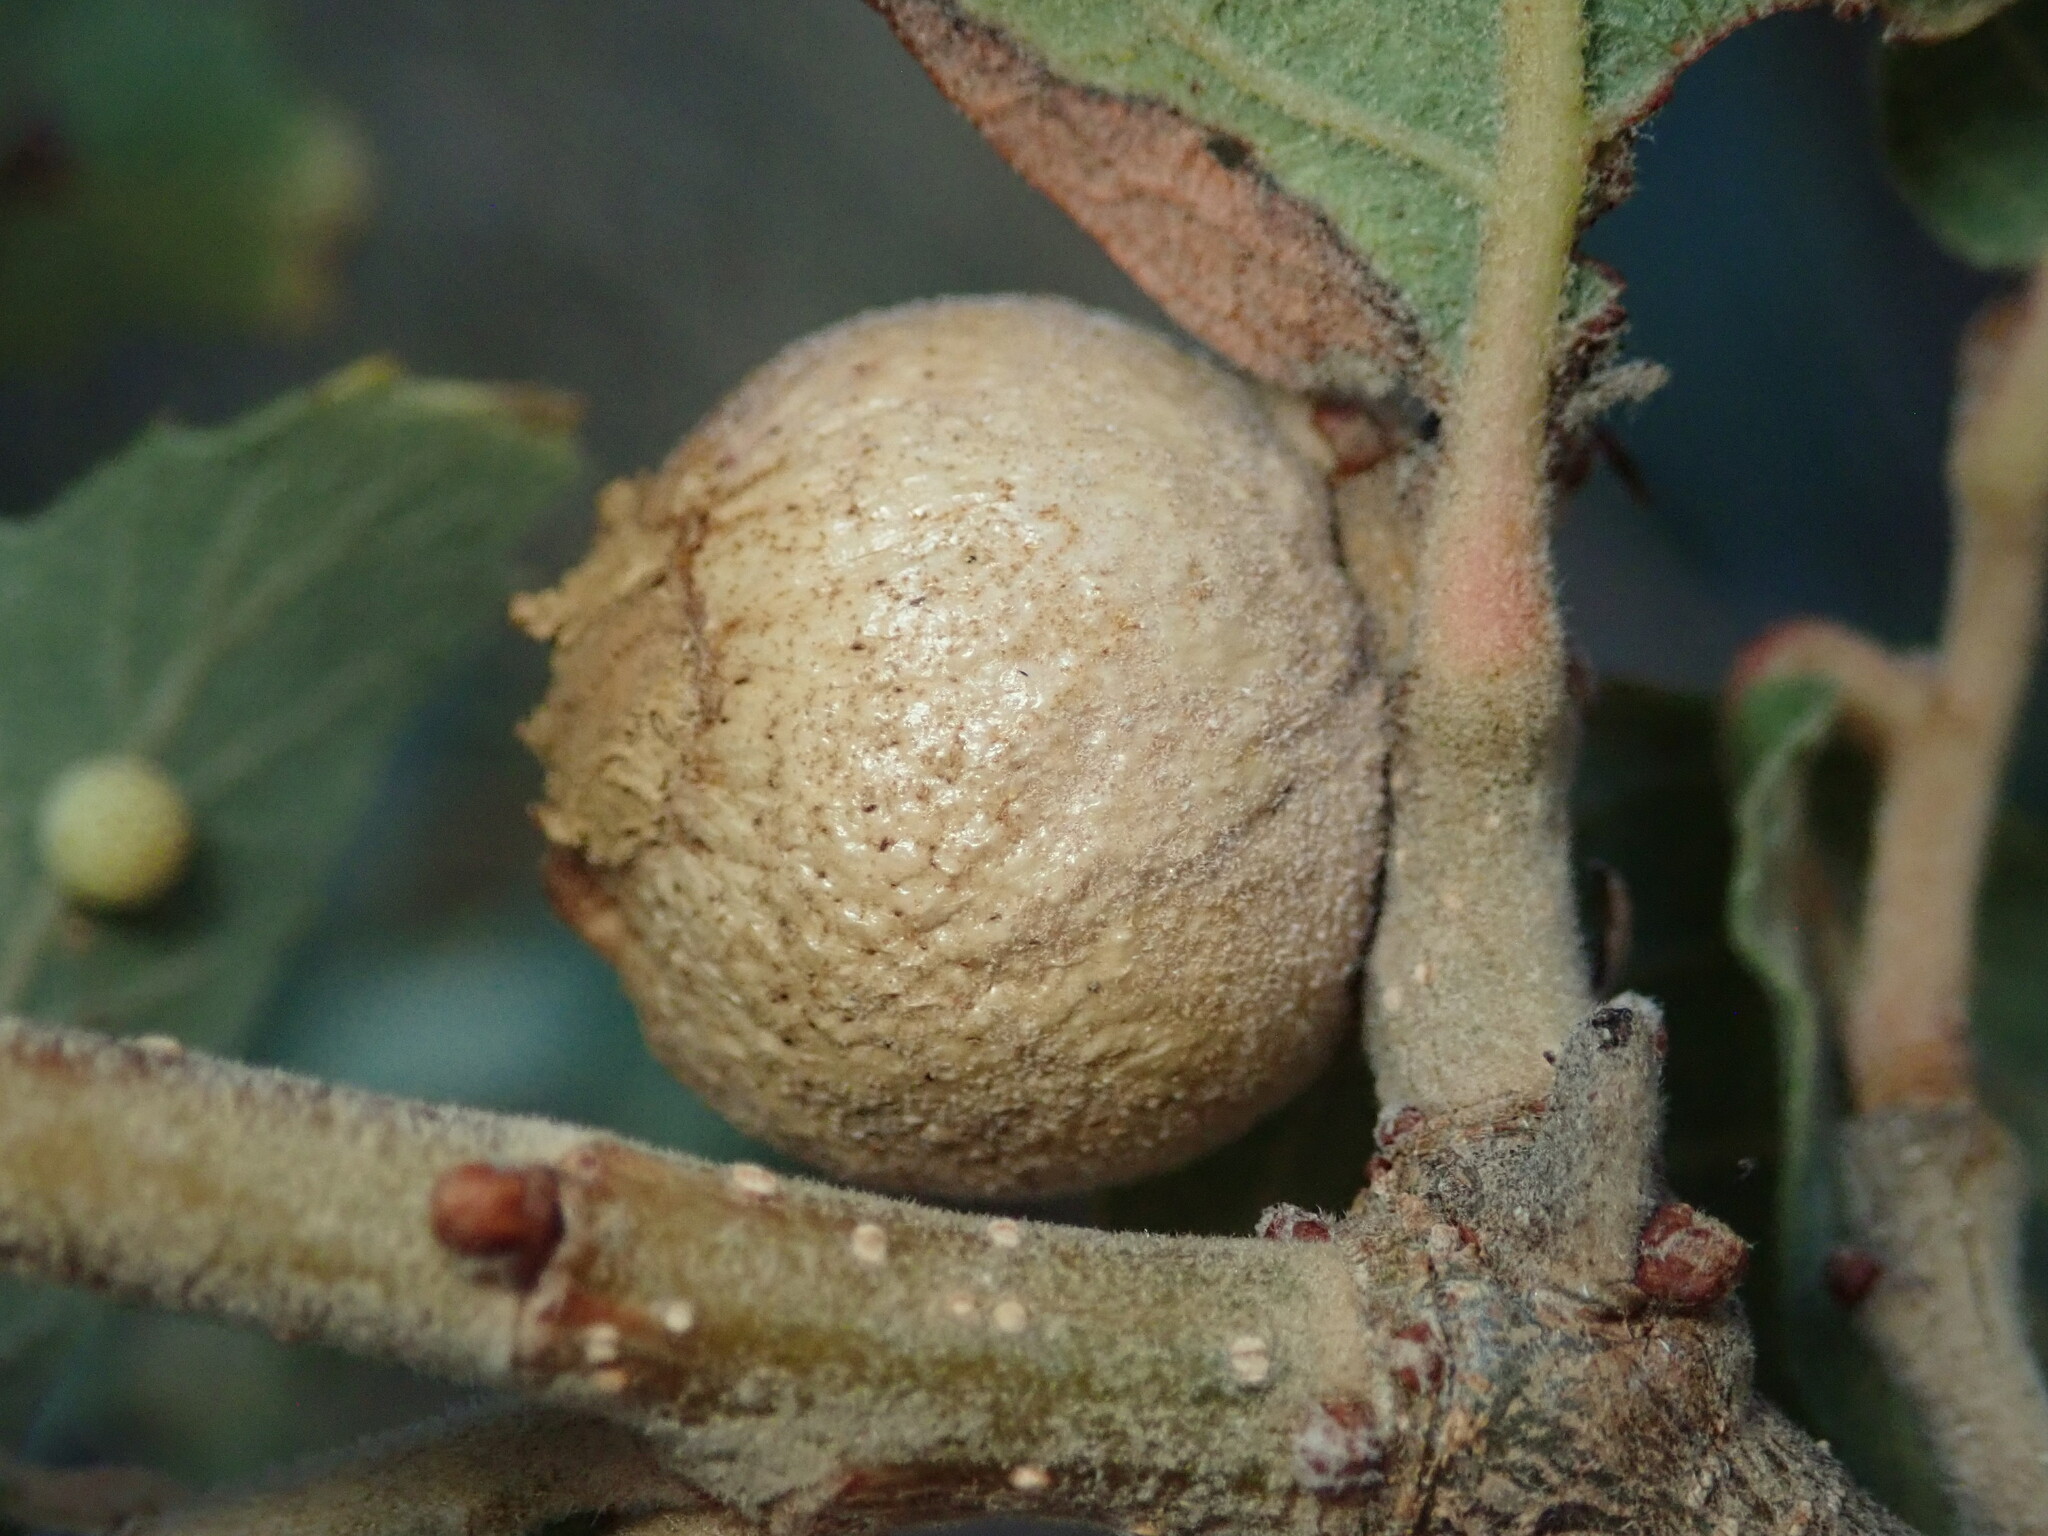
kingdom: Animalia
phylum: Arthropoda
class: Insecta
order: Hymenoptera
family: Cynipidae
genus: Disholcaspis
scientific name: Disholcaspis
